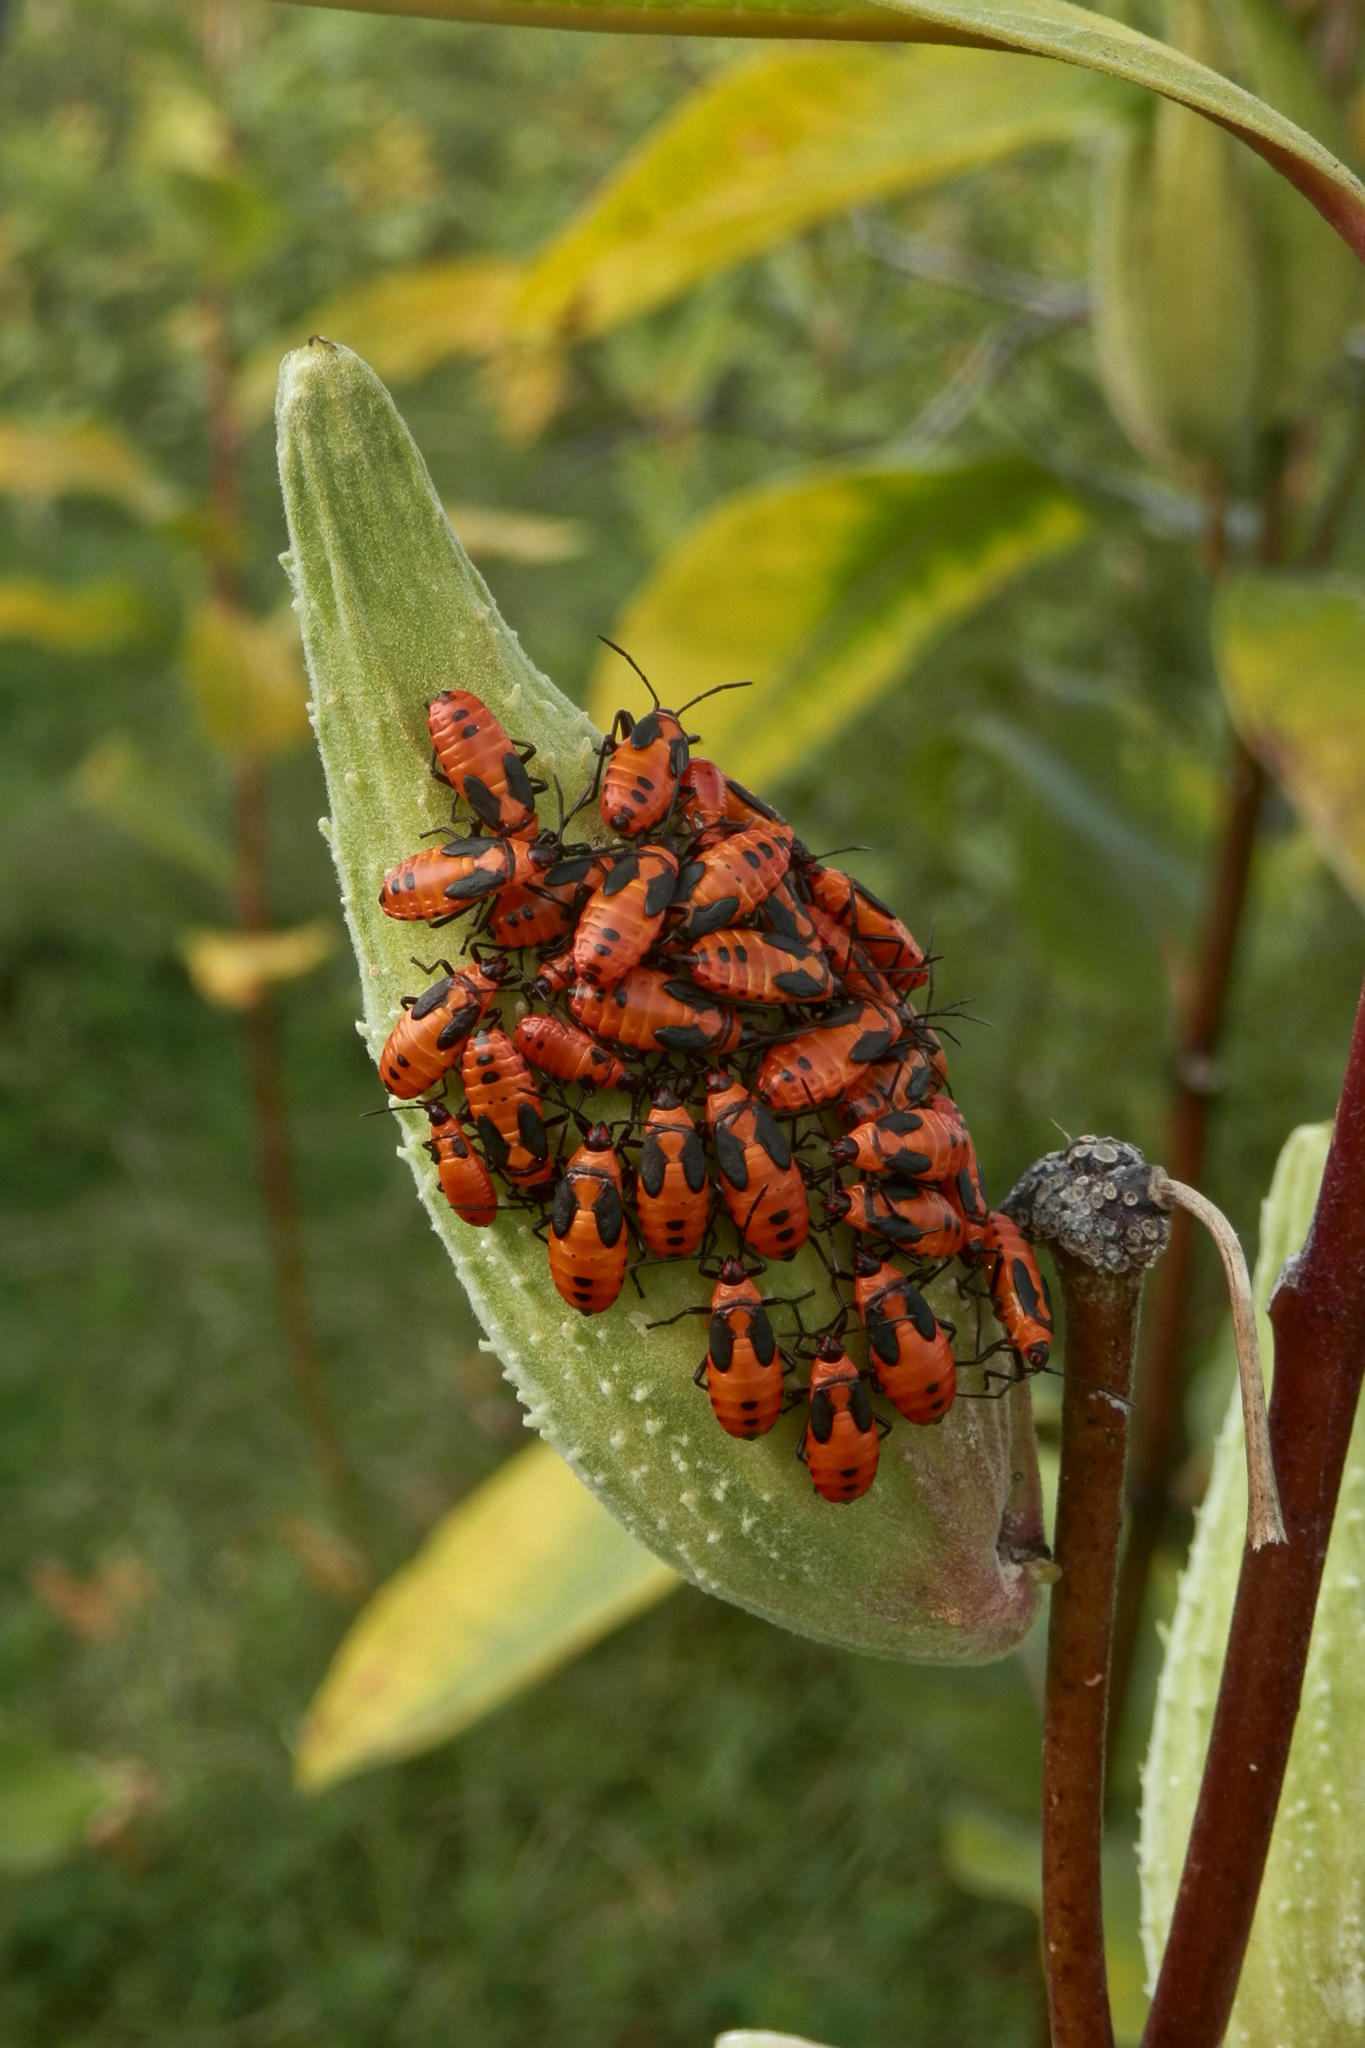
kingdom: Animalia
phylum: Arthropoda
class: Insecta
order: Hemiptera
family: Lygaeidae
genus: Oncopeltus
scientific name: Oncopeltus fasciatus
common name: Large milkweed bug
